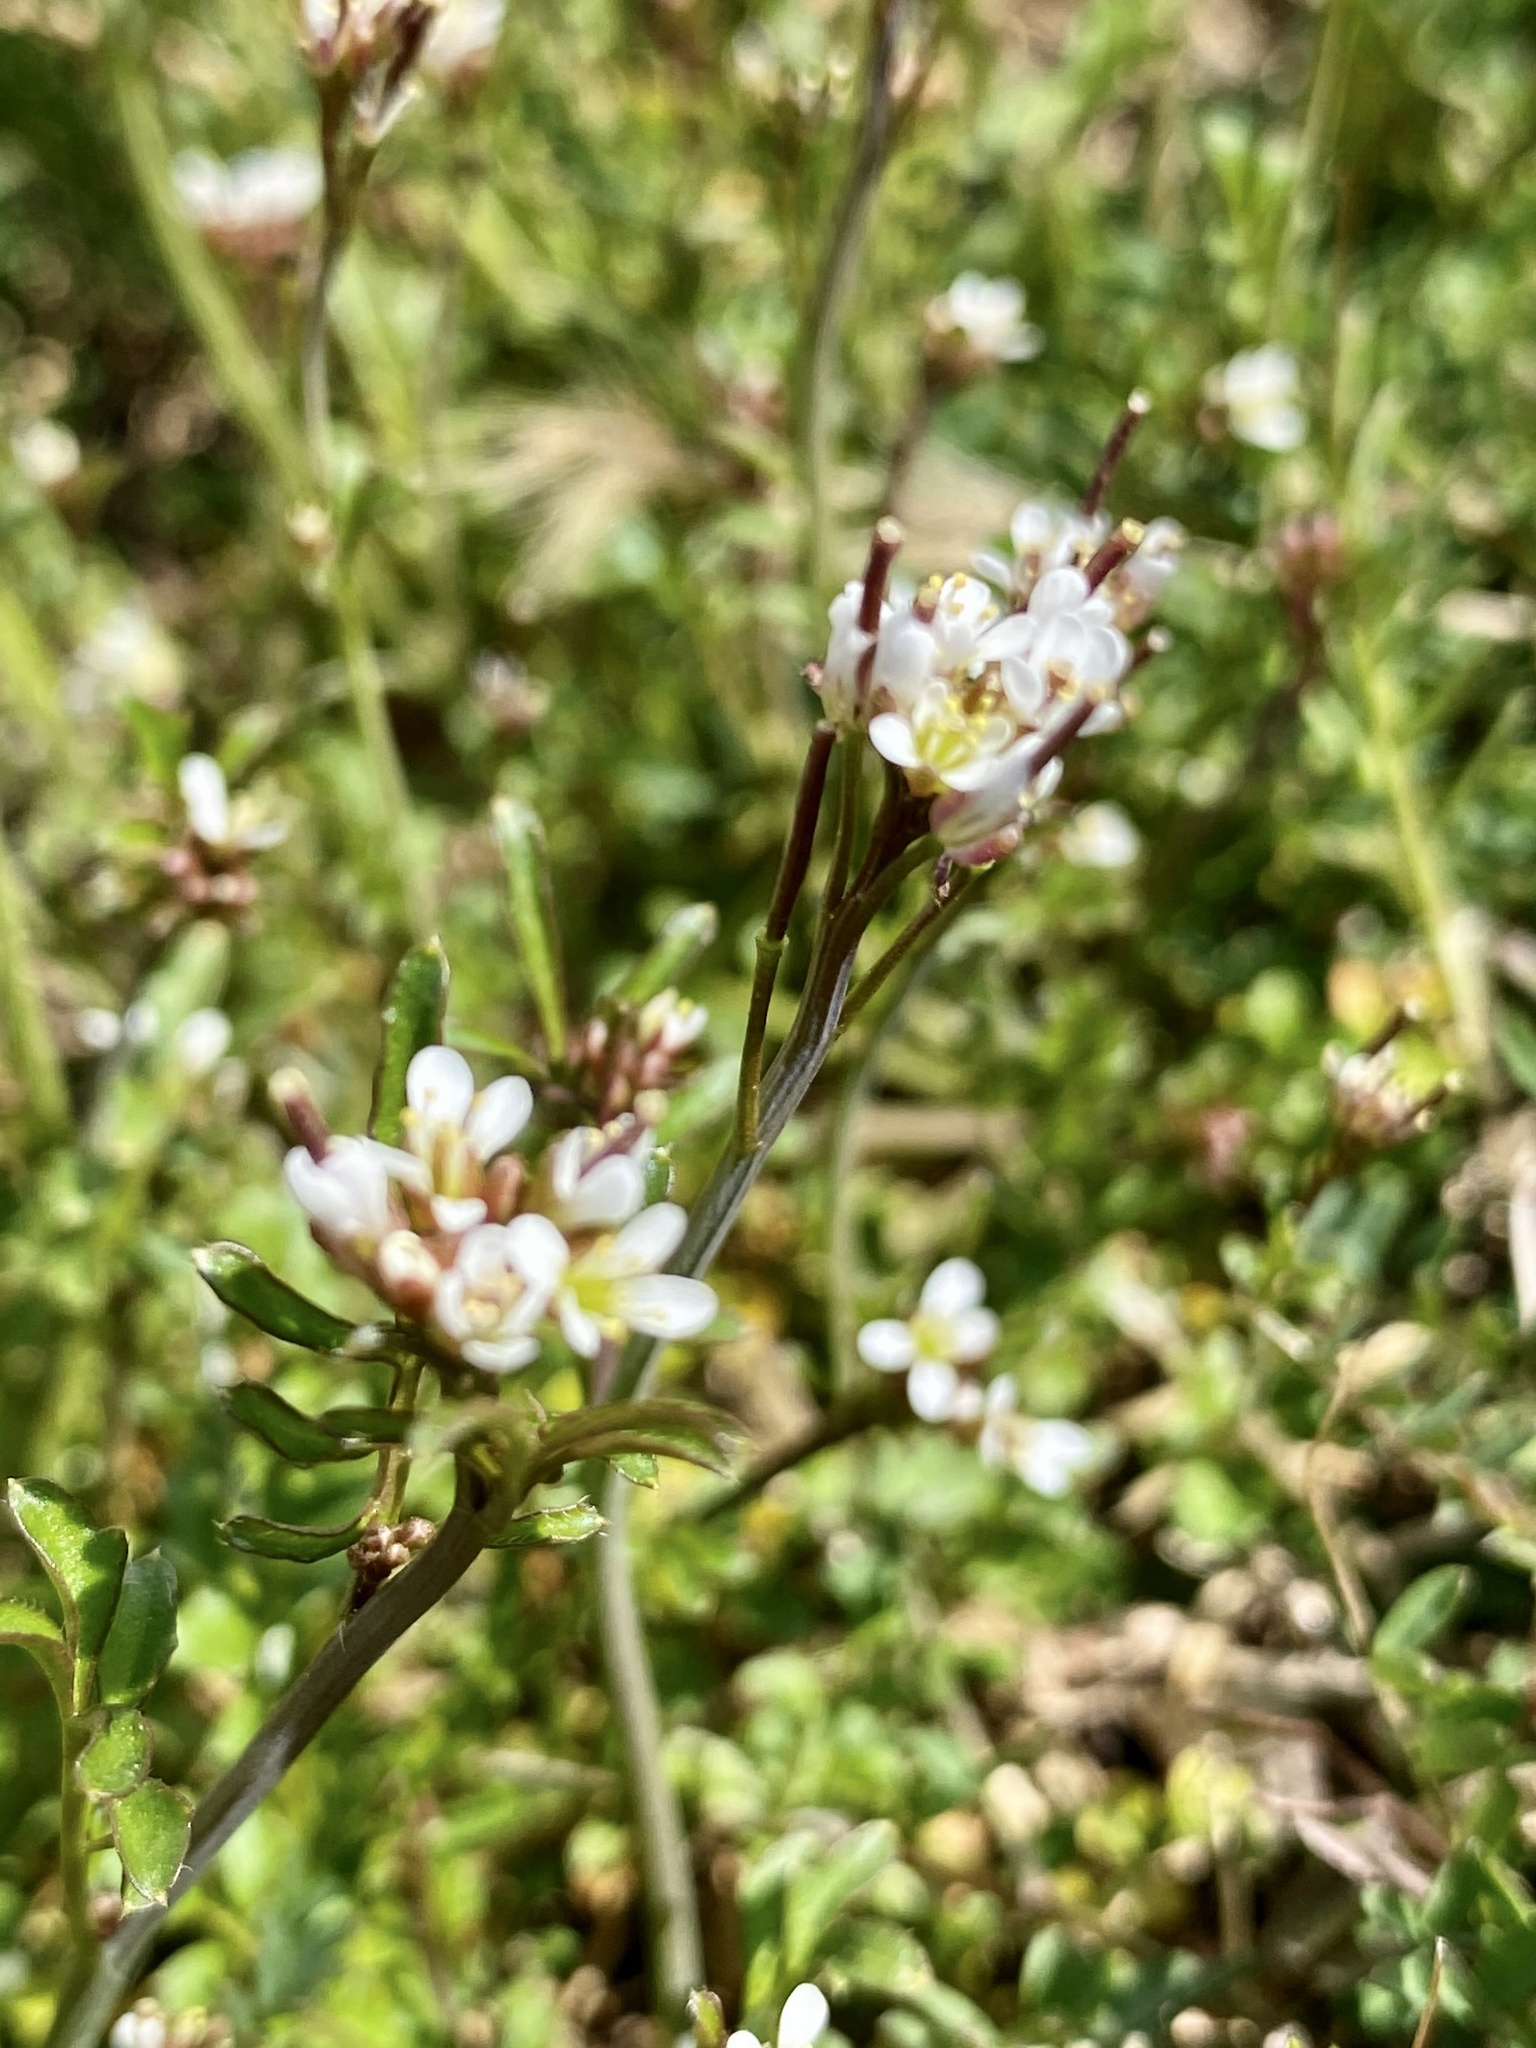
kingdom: Plantae
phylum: Tracheophyta
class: Magnoliopsida
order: Brassicales
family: Brassicaceae
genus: Cardamine
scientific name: Cardamine hirsuta
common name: Hairy bittercress
